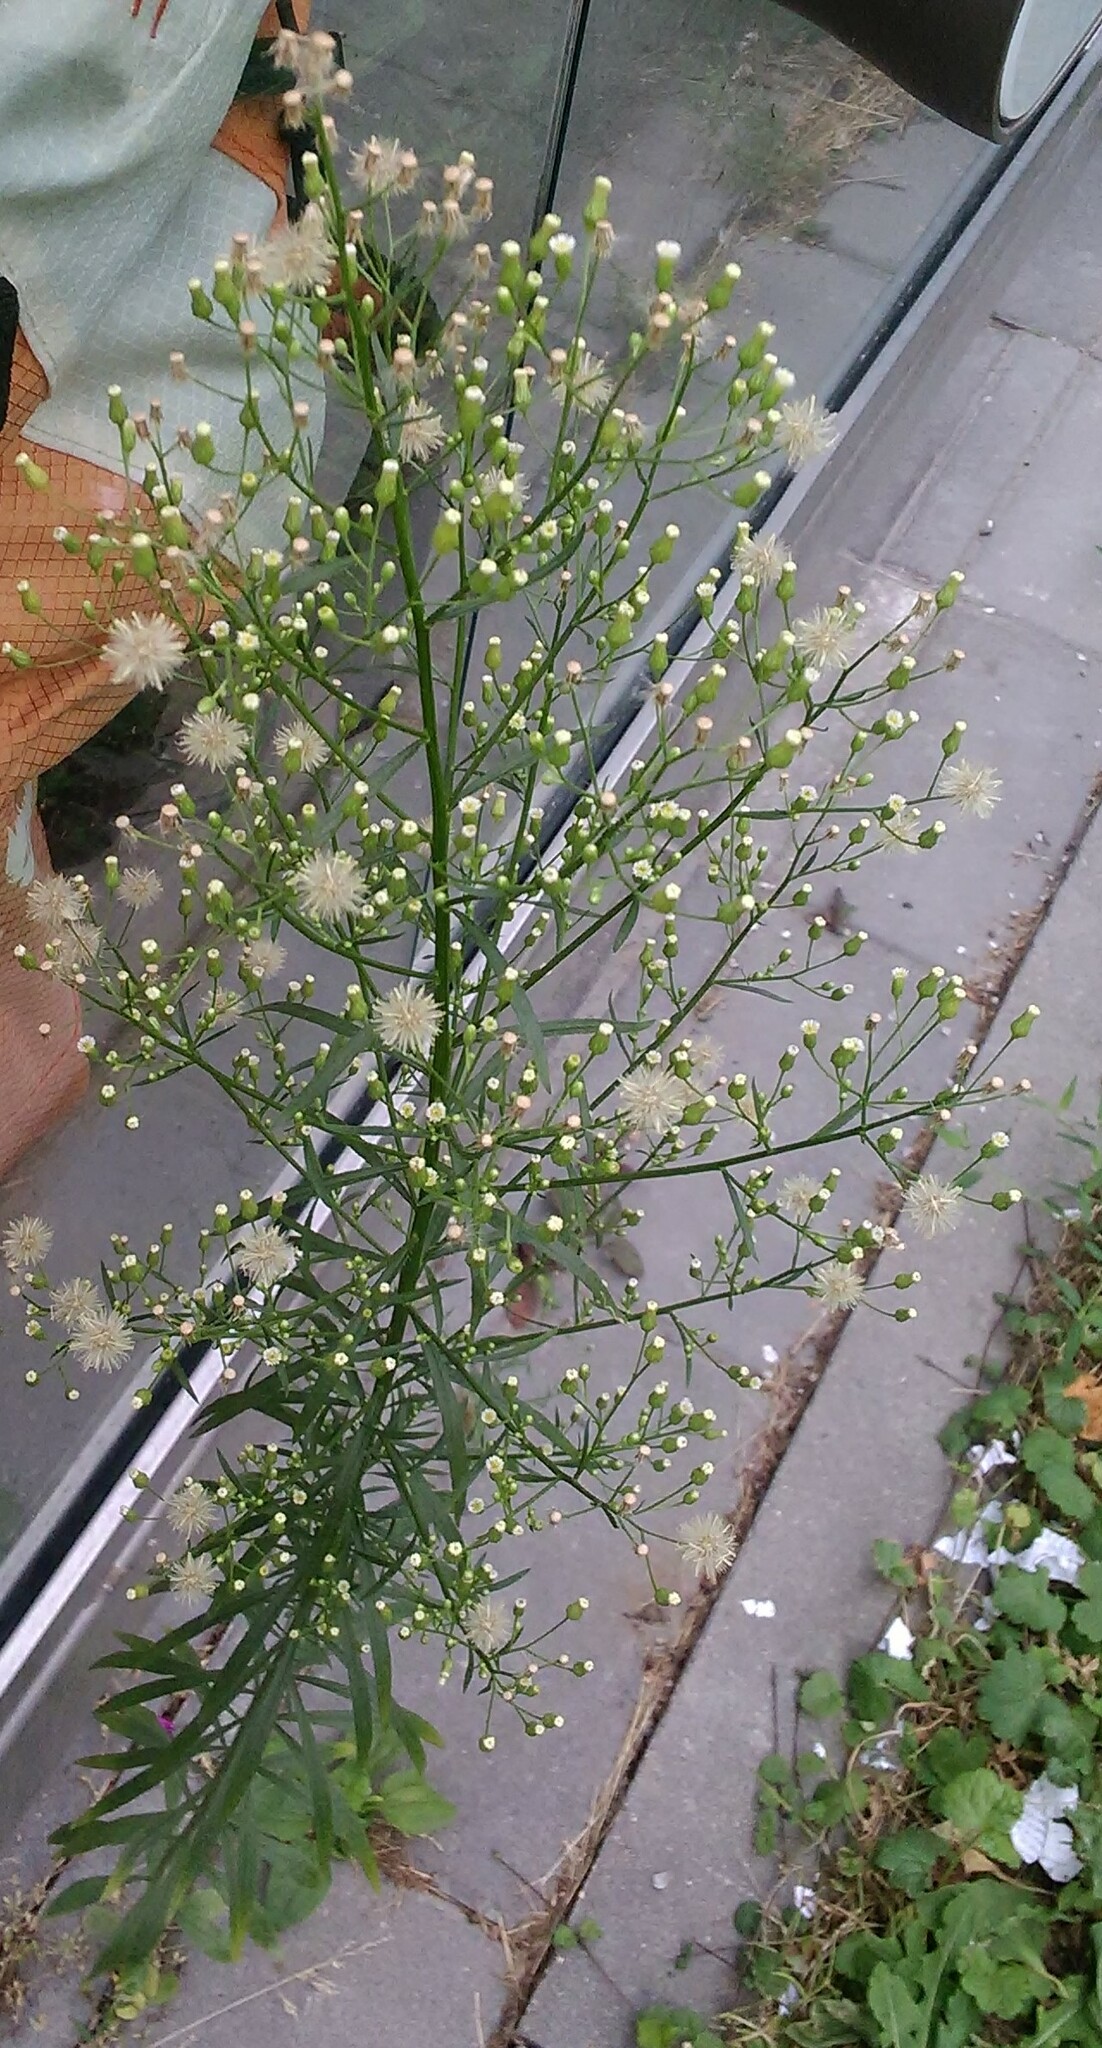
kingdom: Plantae
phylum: Tracheophyta
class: Magnoliopsida
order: Asterales
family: Asteraceae
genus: Erigeron
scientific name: Erigeron canadensis
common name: Canadian fleabane
